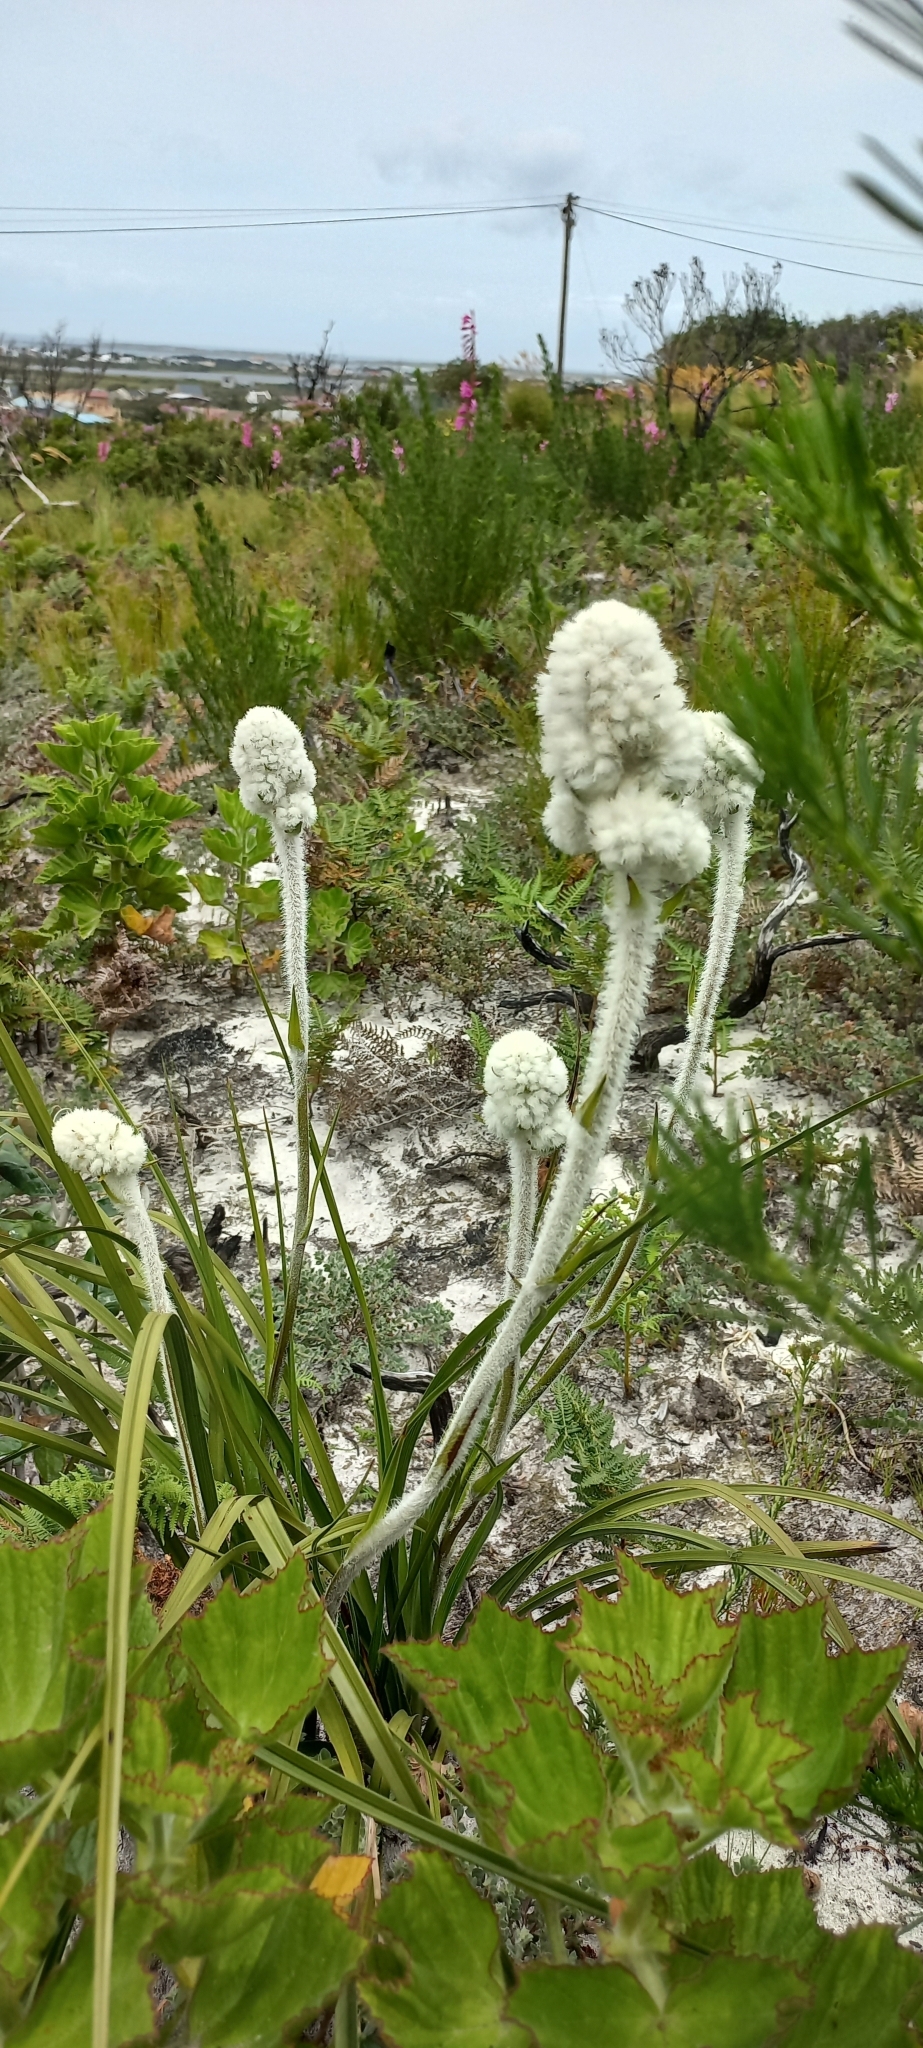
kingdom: Plantae
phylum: Tracheophyta
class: Liliopsida
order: Asparagales
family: Lanariaceae
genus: Lanaria
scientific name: Lanaria lanata
